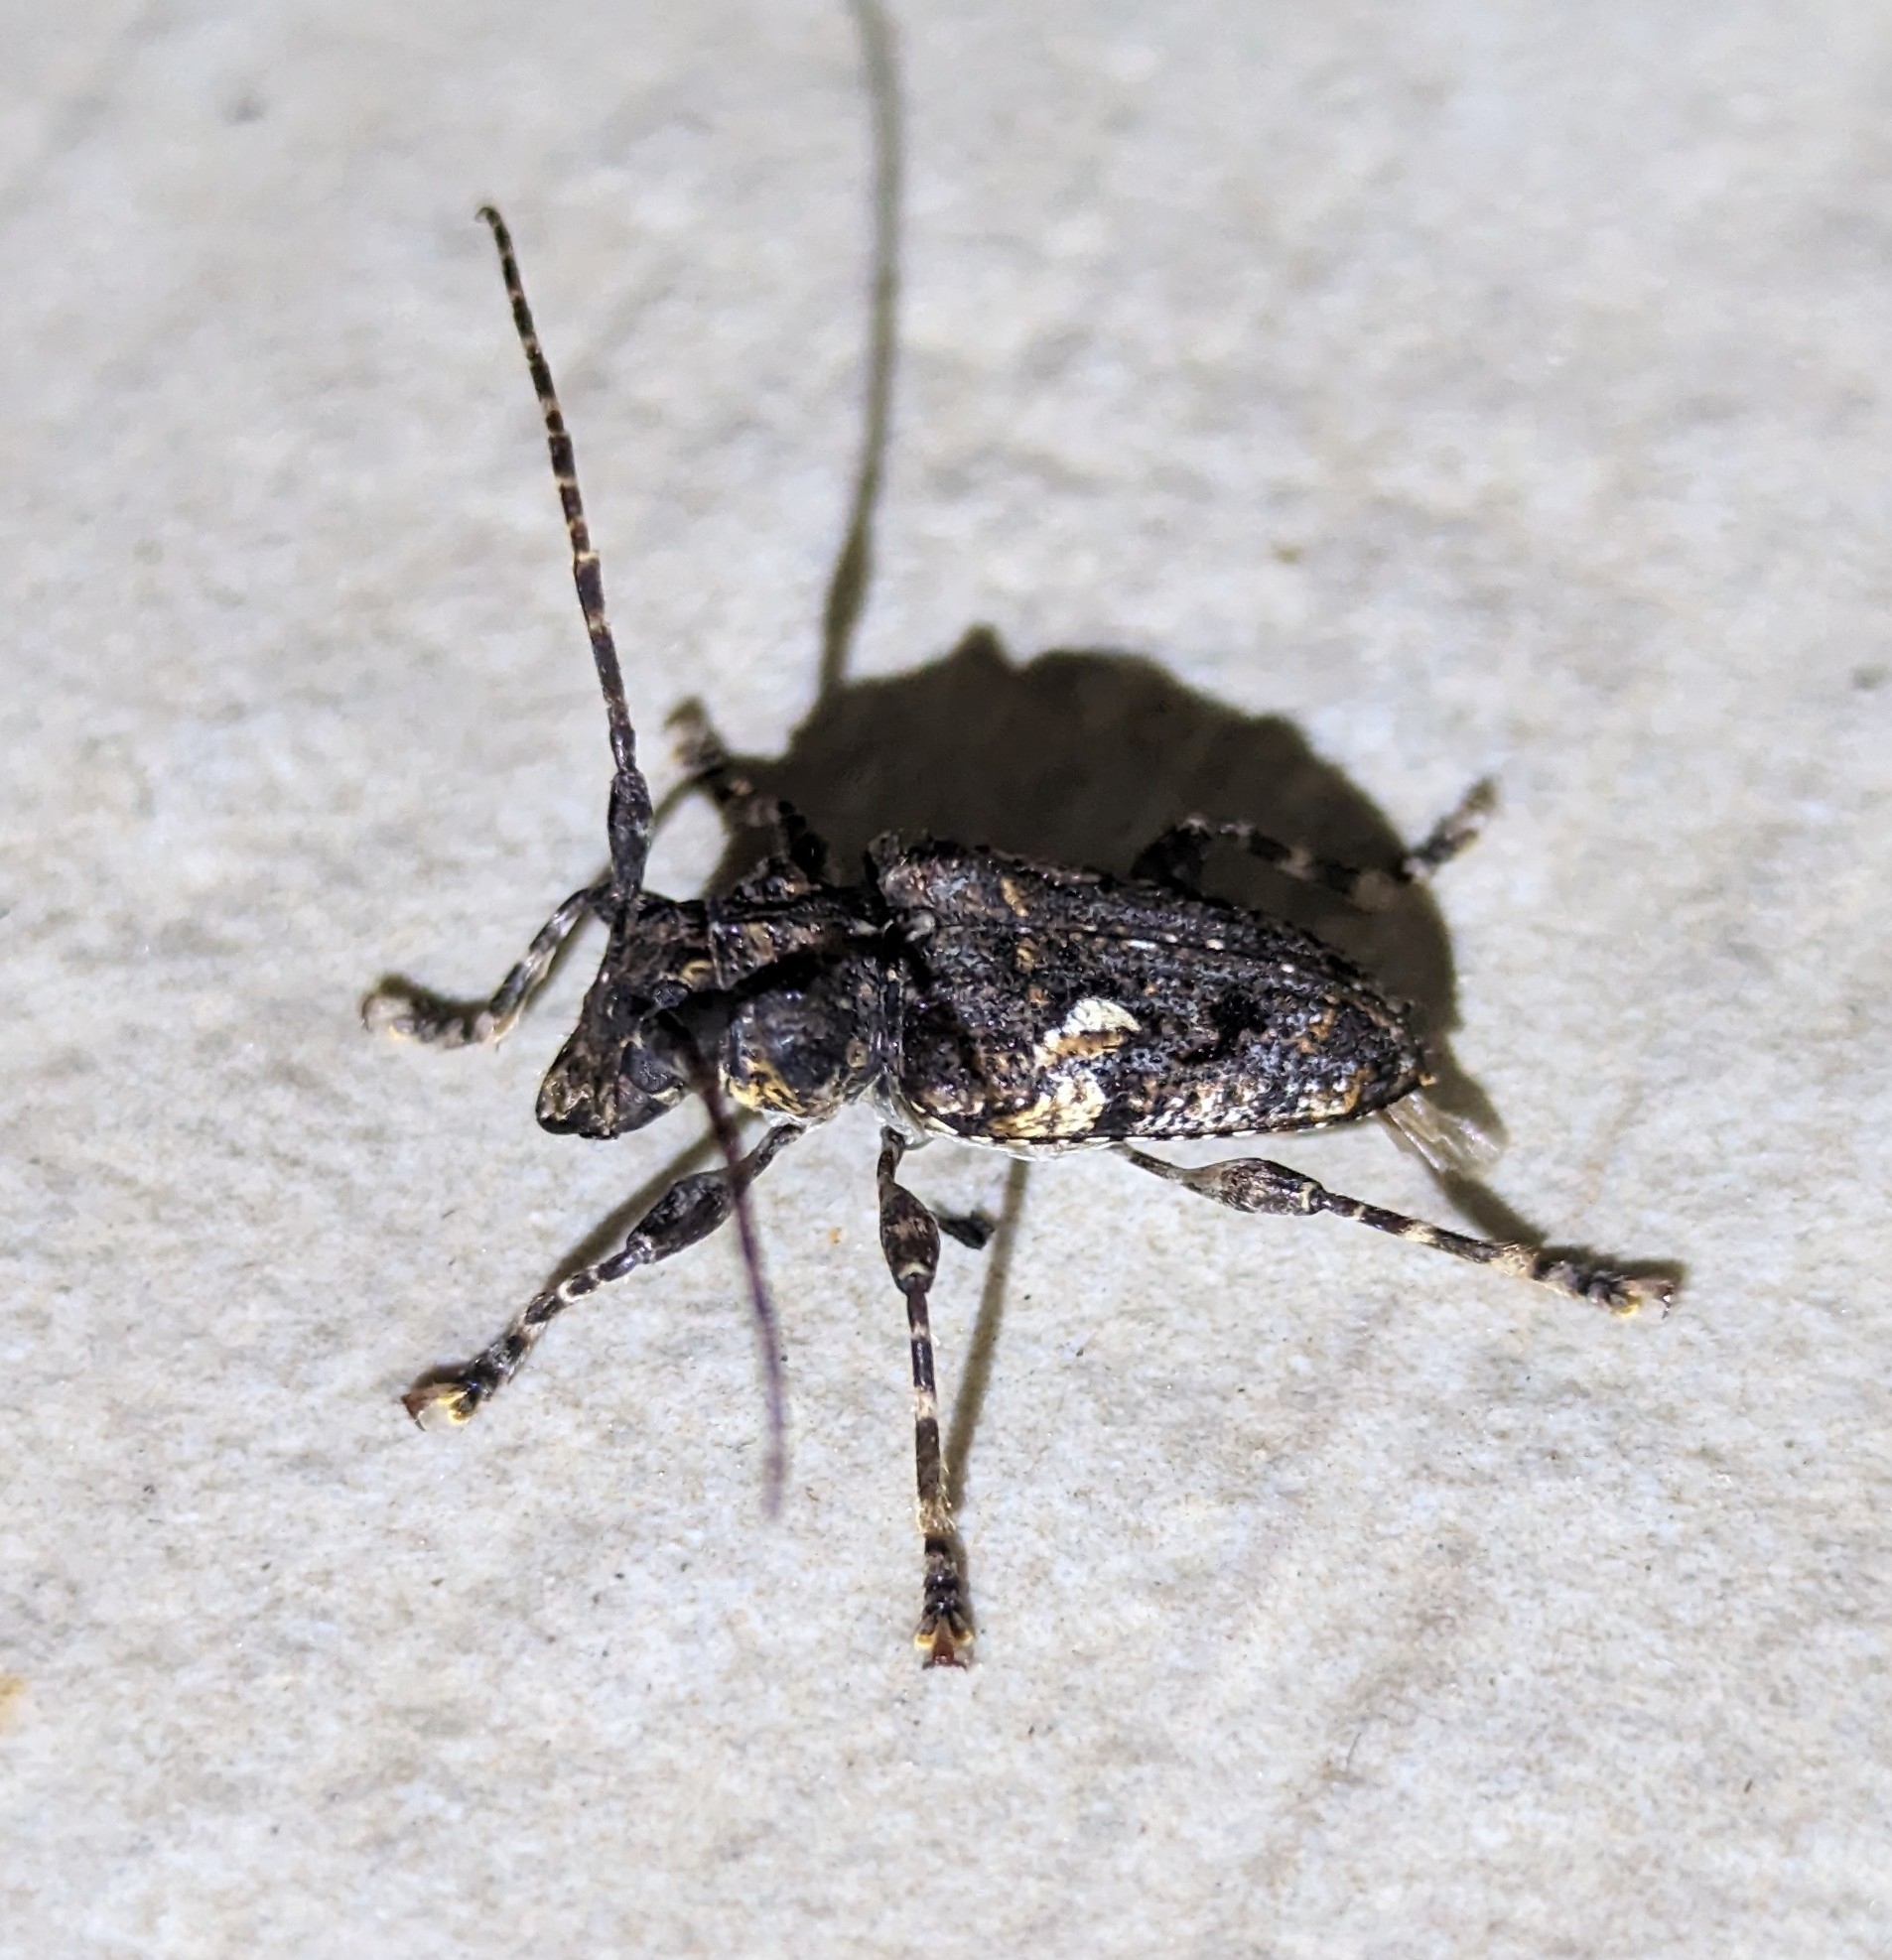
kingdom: Animalia
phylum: Arthropoda
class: Insecta
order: Coleoptera
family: Cerambycidae
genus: Psapharochrus
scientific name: Psapharochrus circumflexus
